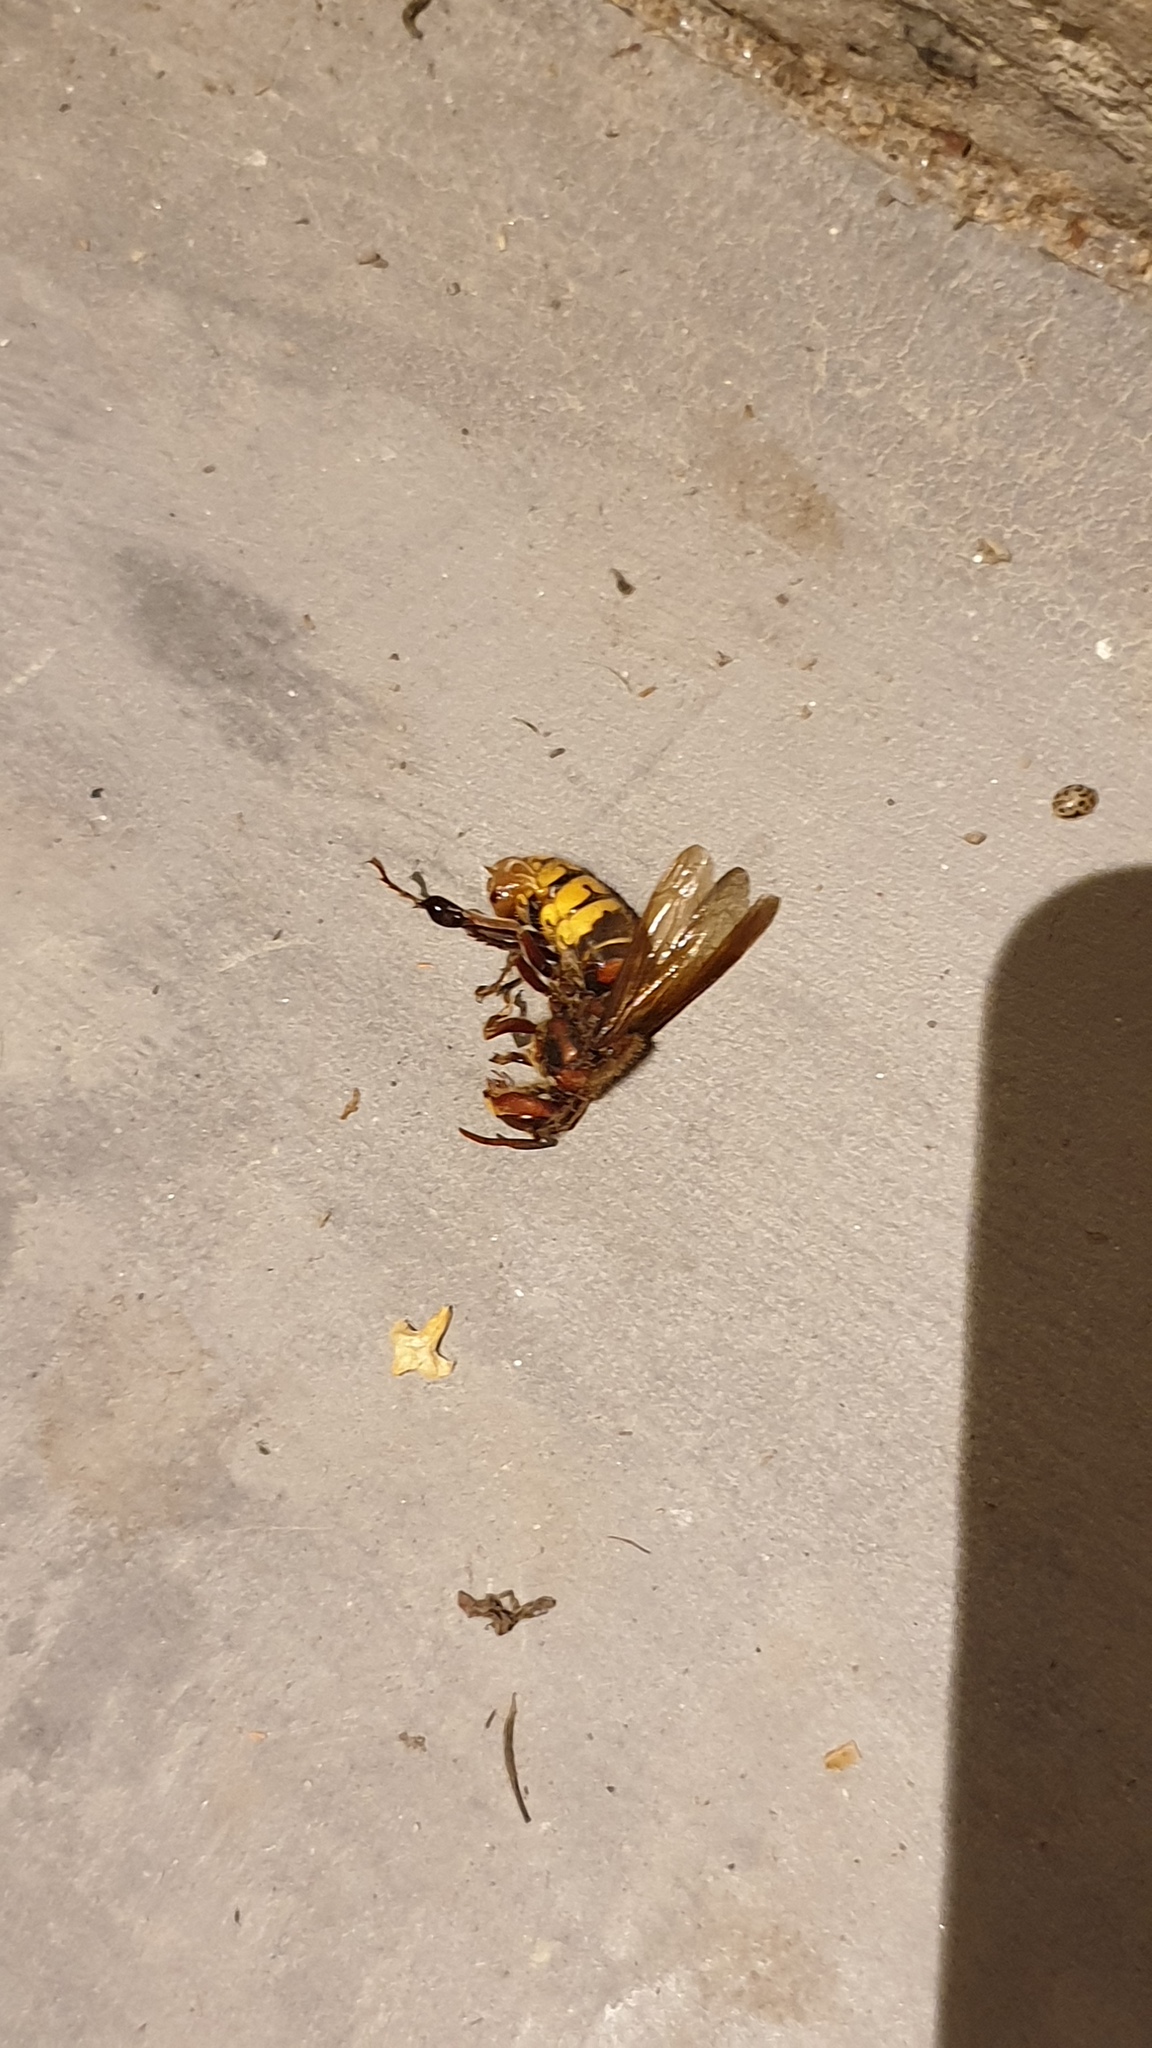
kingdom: Animalia
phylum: Arthropoda
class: Insecta
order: Hymenoptera
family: Vespidae
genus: Vespa
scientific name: Vespa crabro
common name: Hornet
